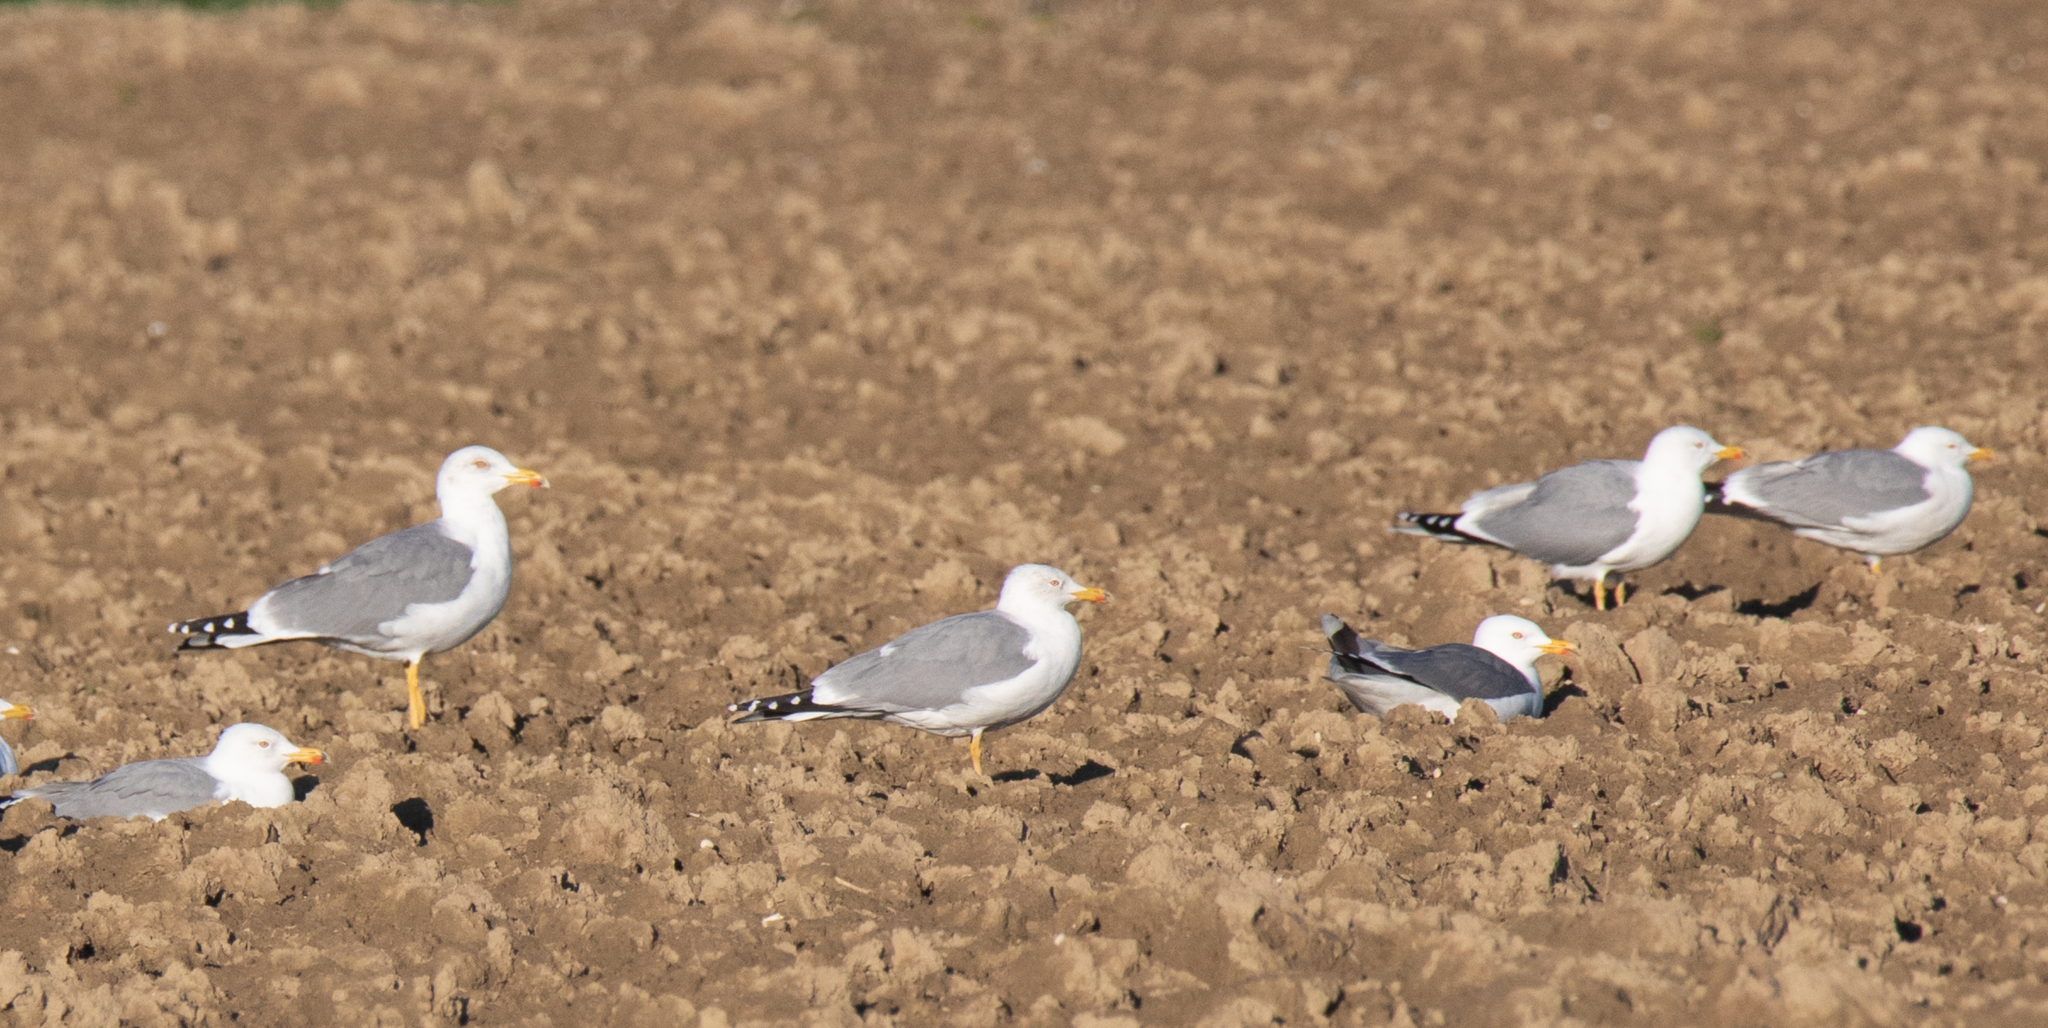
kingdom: Animalia
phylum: Chordata
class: Aves
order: Charadriiformes
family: Laridae
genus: Larus
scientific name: Larus michahellis
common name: Yellow-legged gull
